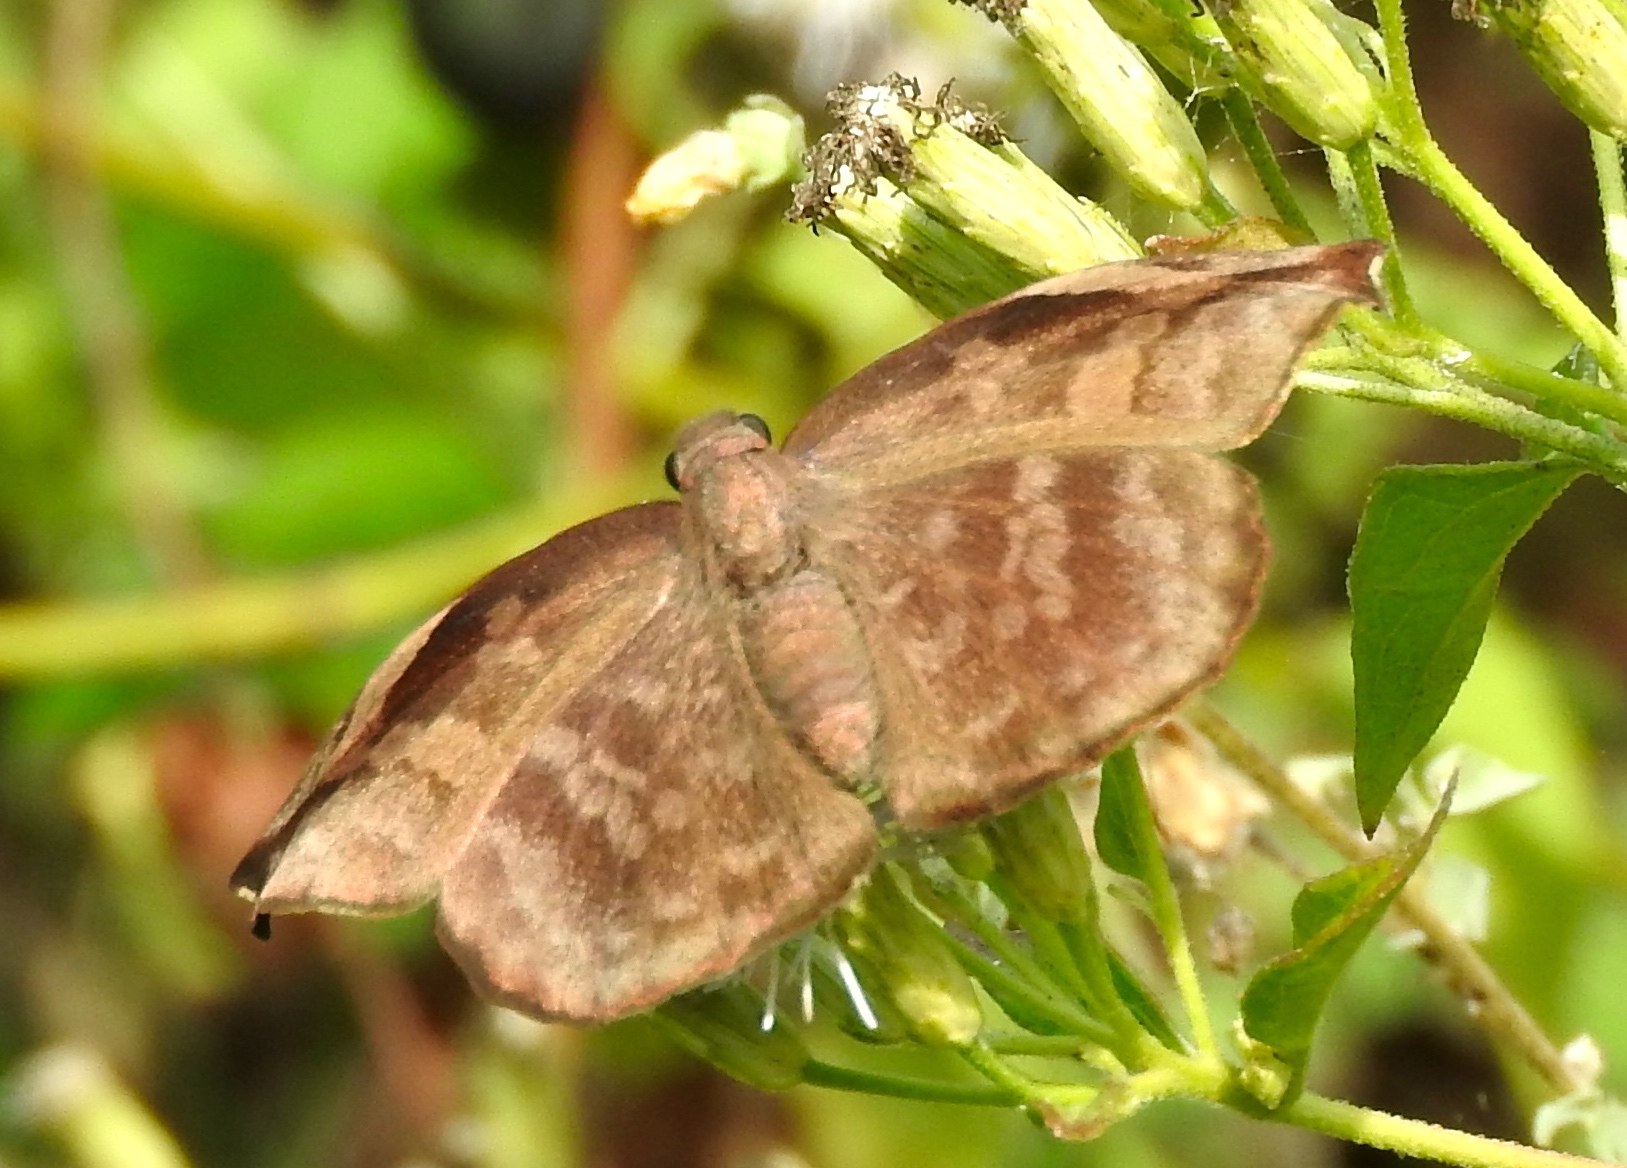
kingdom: Animalia
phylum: Arthropoda
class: Insecta
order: Lepidoptera
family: Hesperiidae
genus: Achlyodes
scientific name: Achlyodes thraso
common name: Sickle-winged skipper
